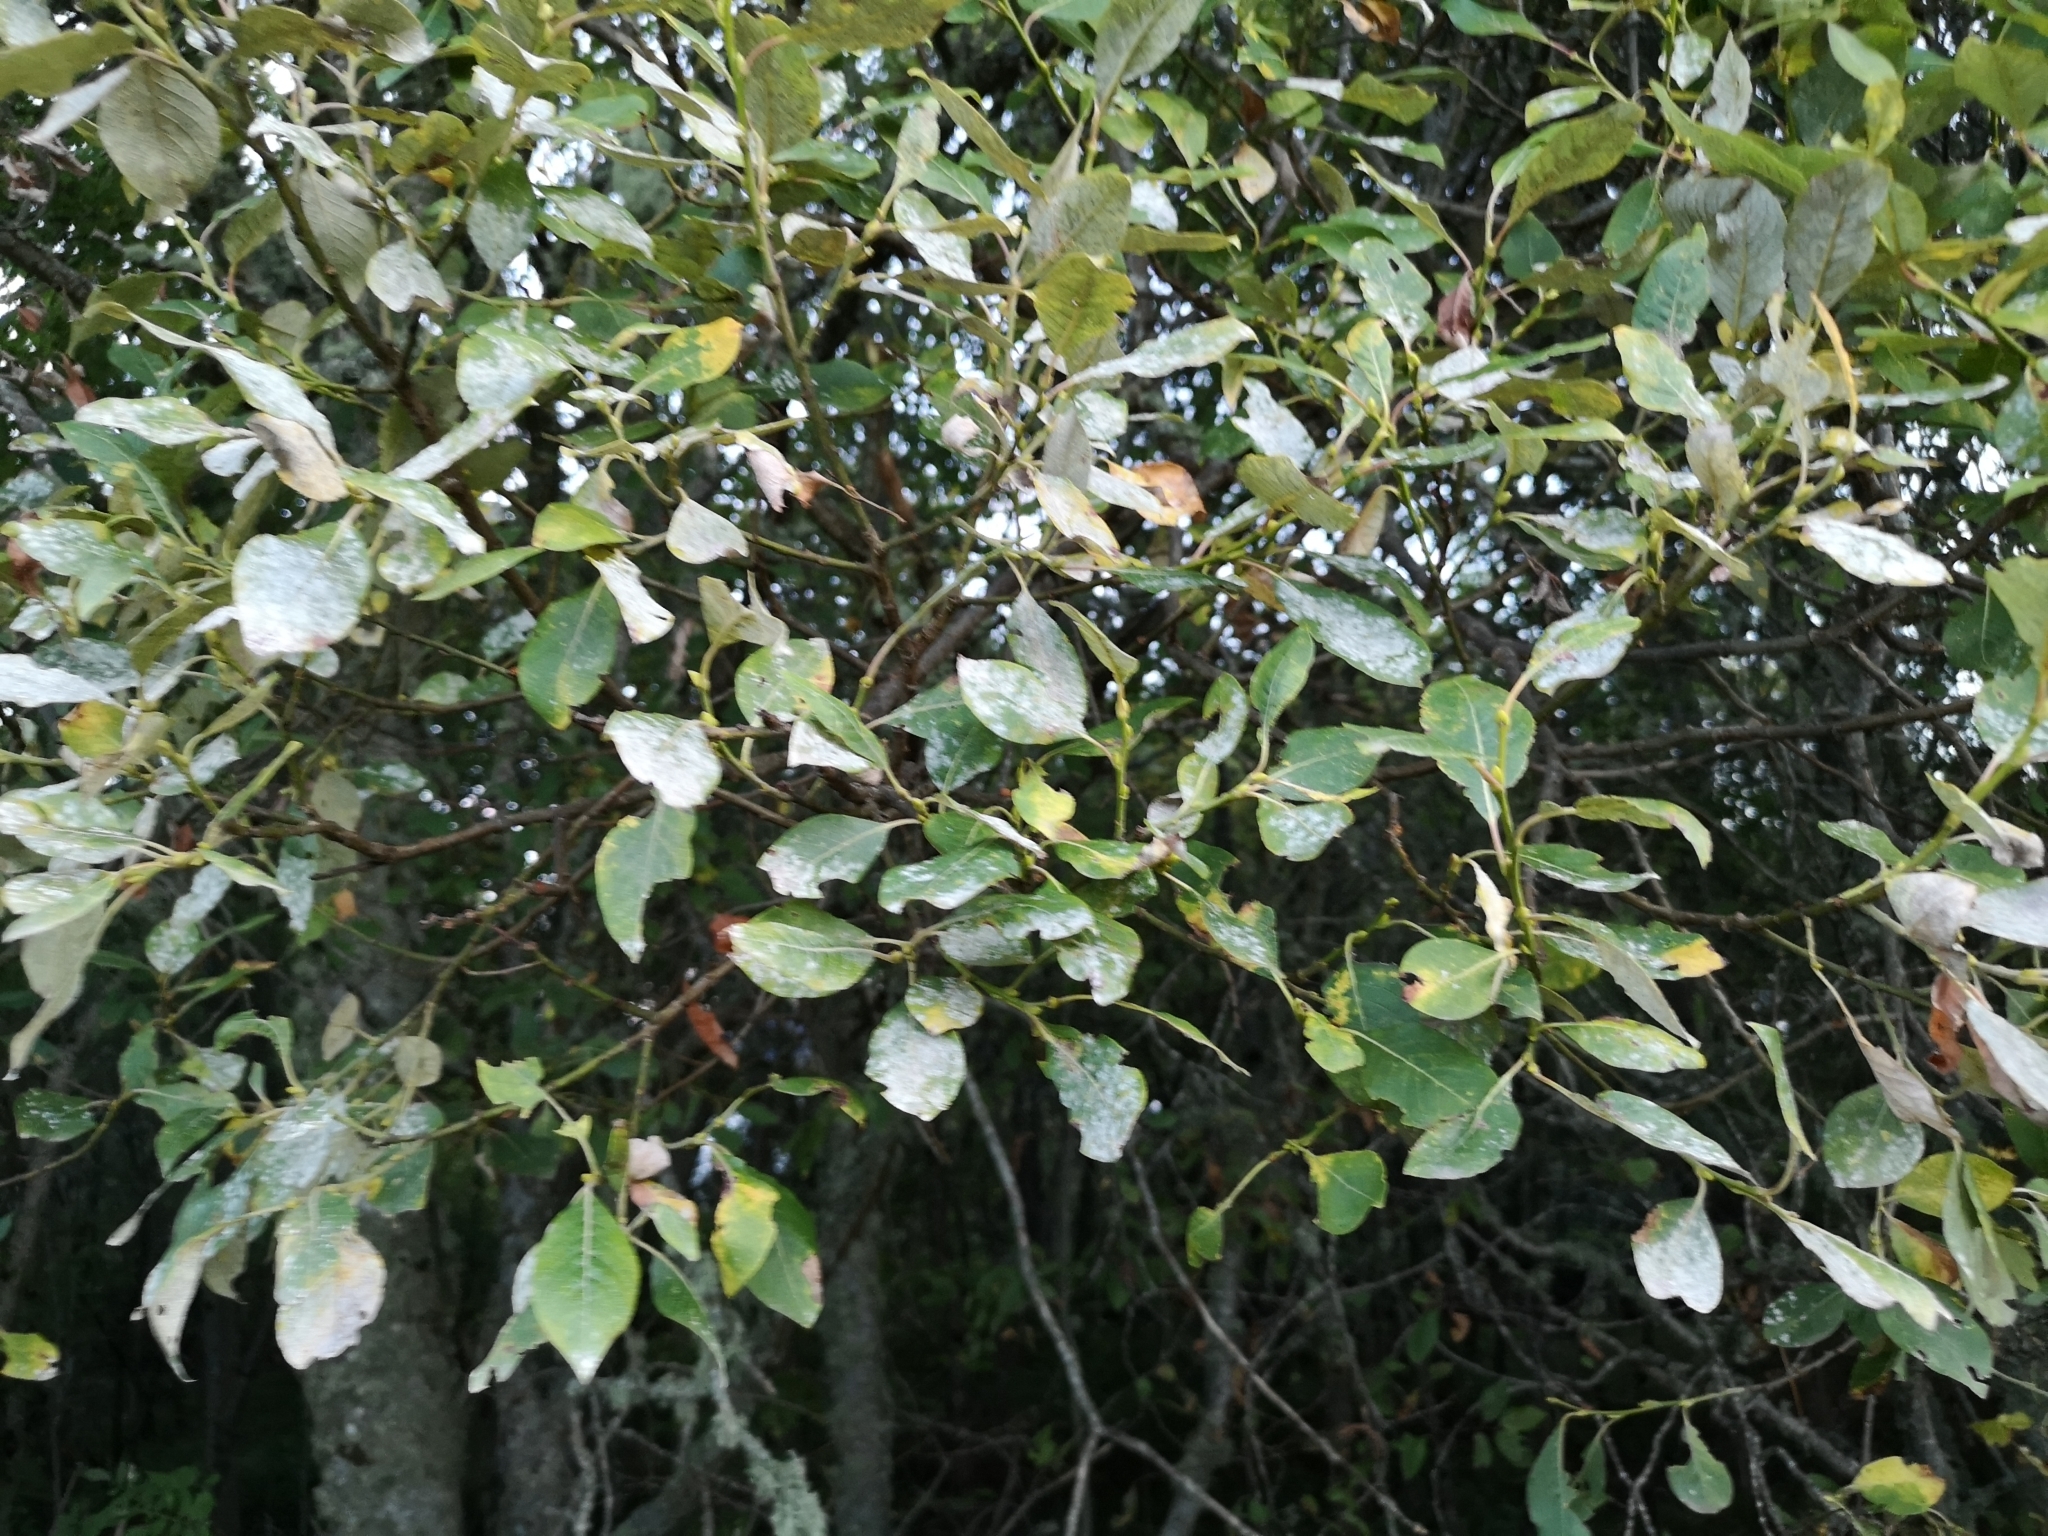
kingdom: Plantae
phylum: Tracheophyta
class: Magnoliopsida
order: Malpighiales
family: Salicaceae
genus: Salix
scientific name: Salix caprea
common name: Goat willow
